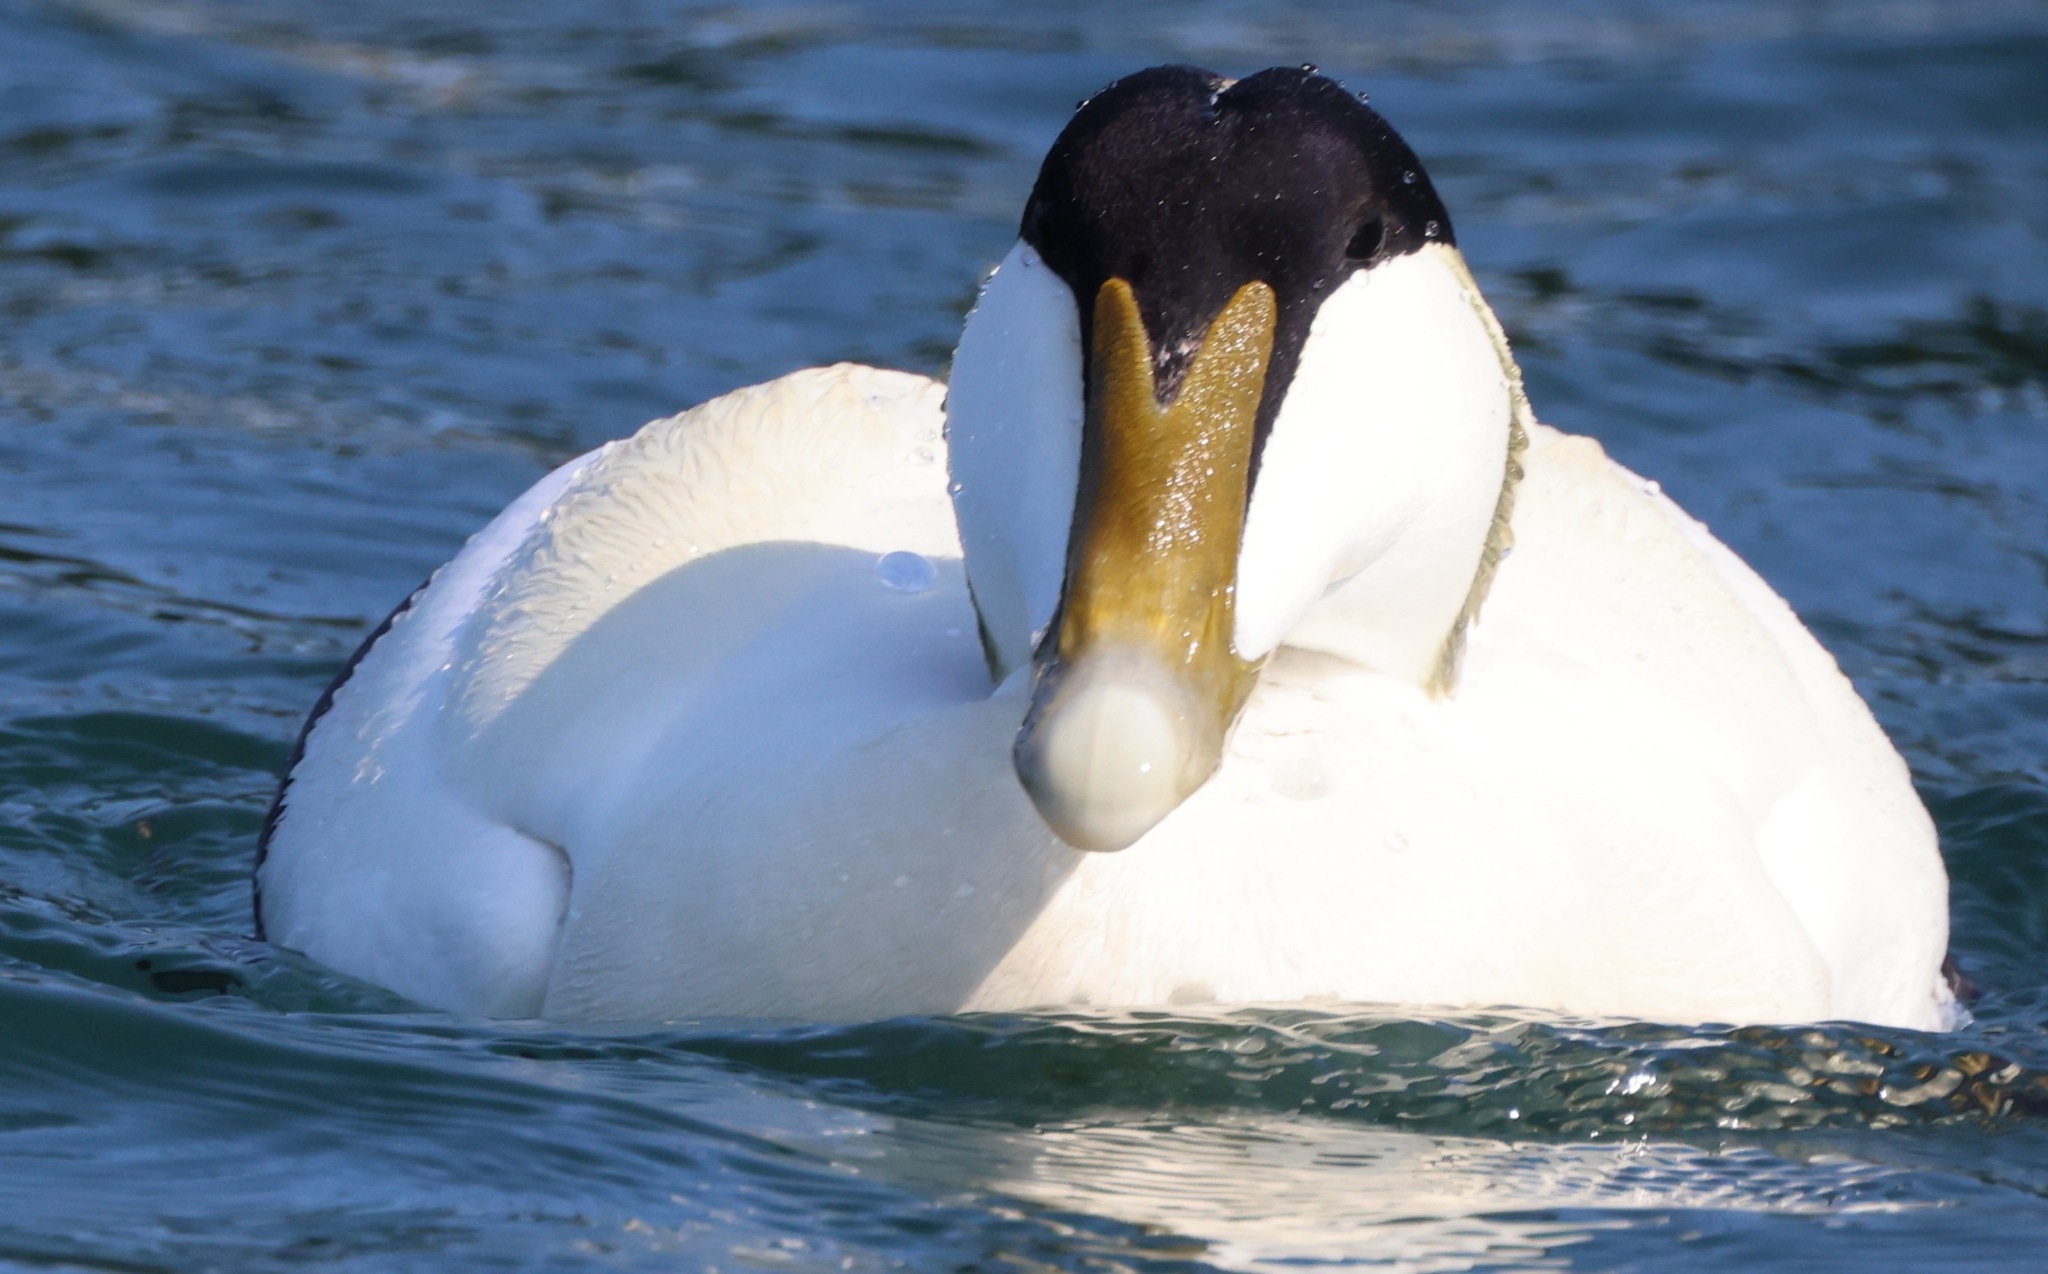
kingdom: Animalia
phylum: Chordata
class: Aves
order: Anseriformes
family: Anatidae
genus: Somateria
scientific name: Somateria mollissima
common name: Common eider
